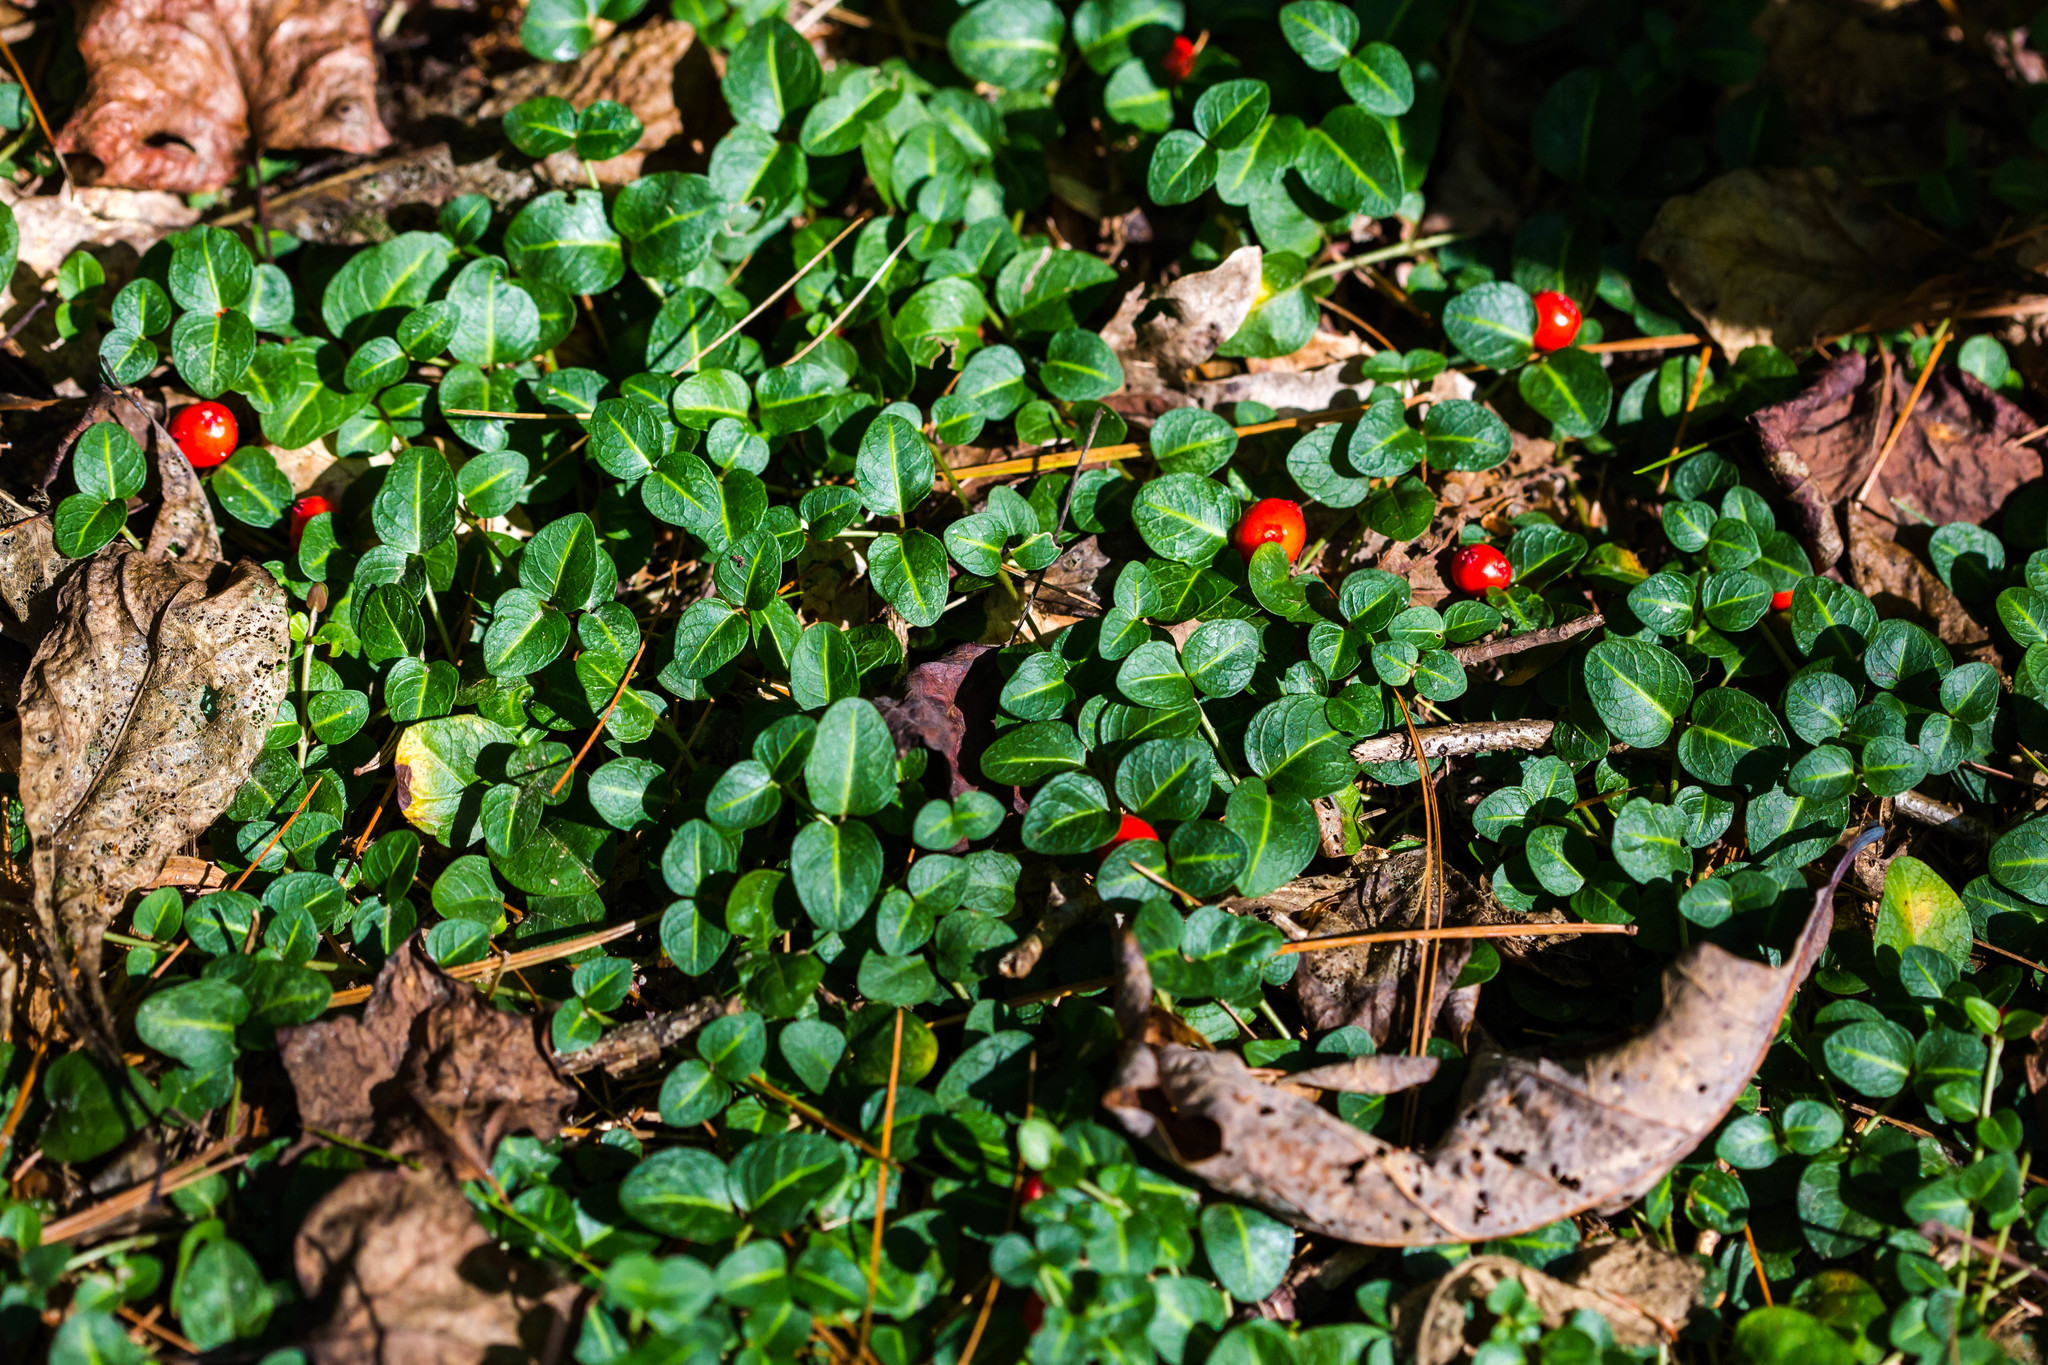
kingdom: Plantae
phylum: Tracheophyta
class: Magnoliopsida
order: Gentianales
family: Rubiaceae
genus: Mitchella
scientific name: Mitchella repens
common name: Partridge-berry
